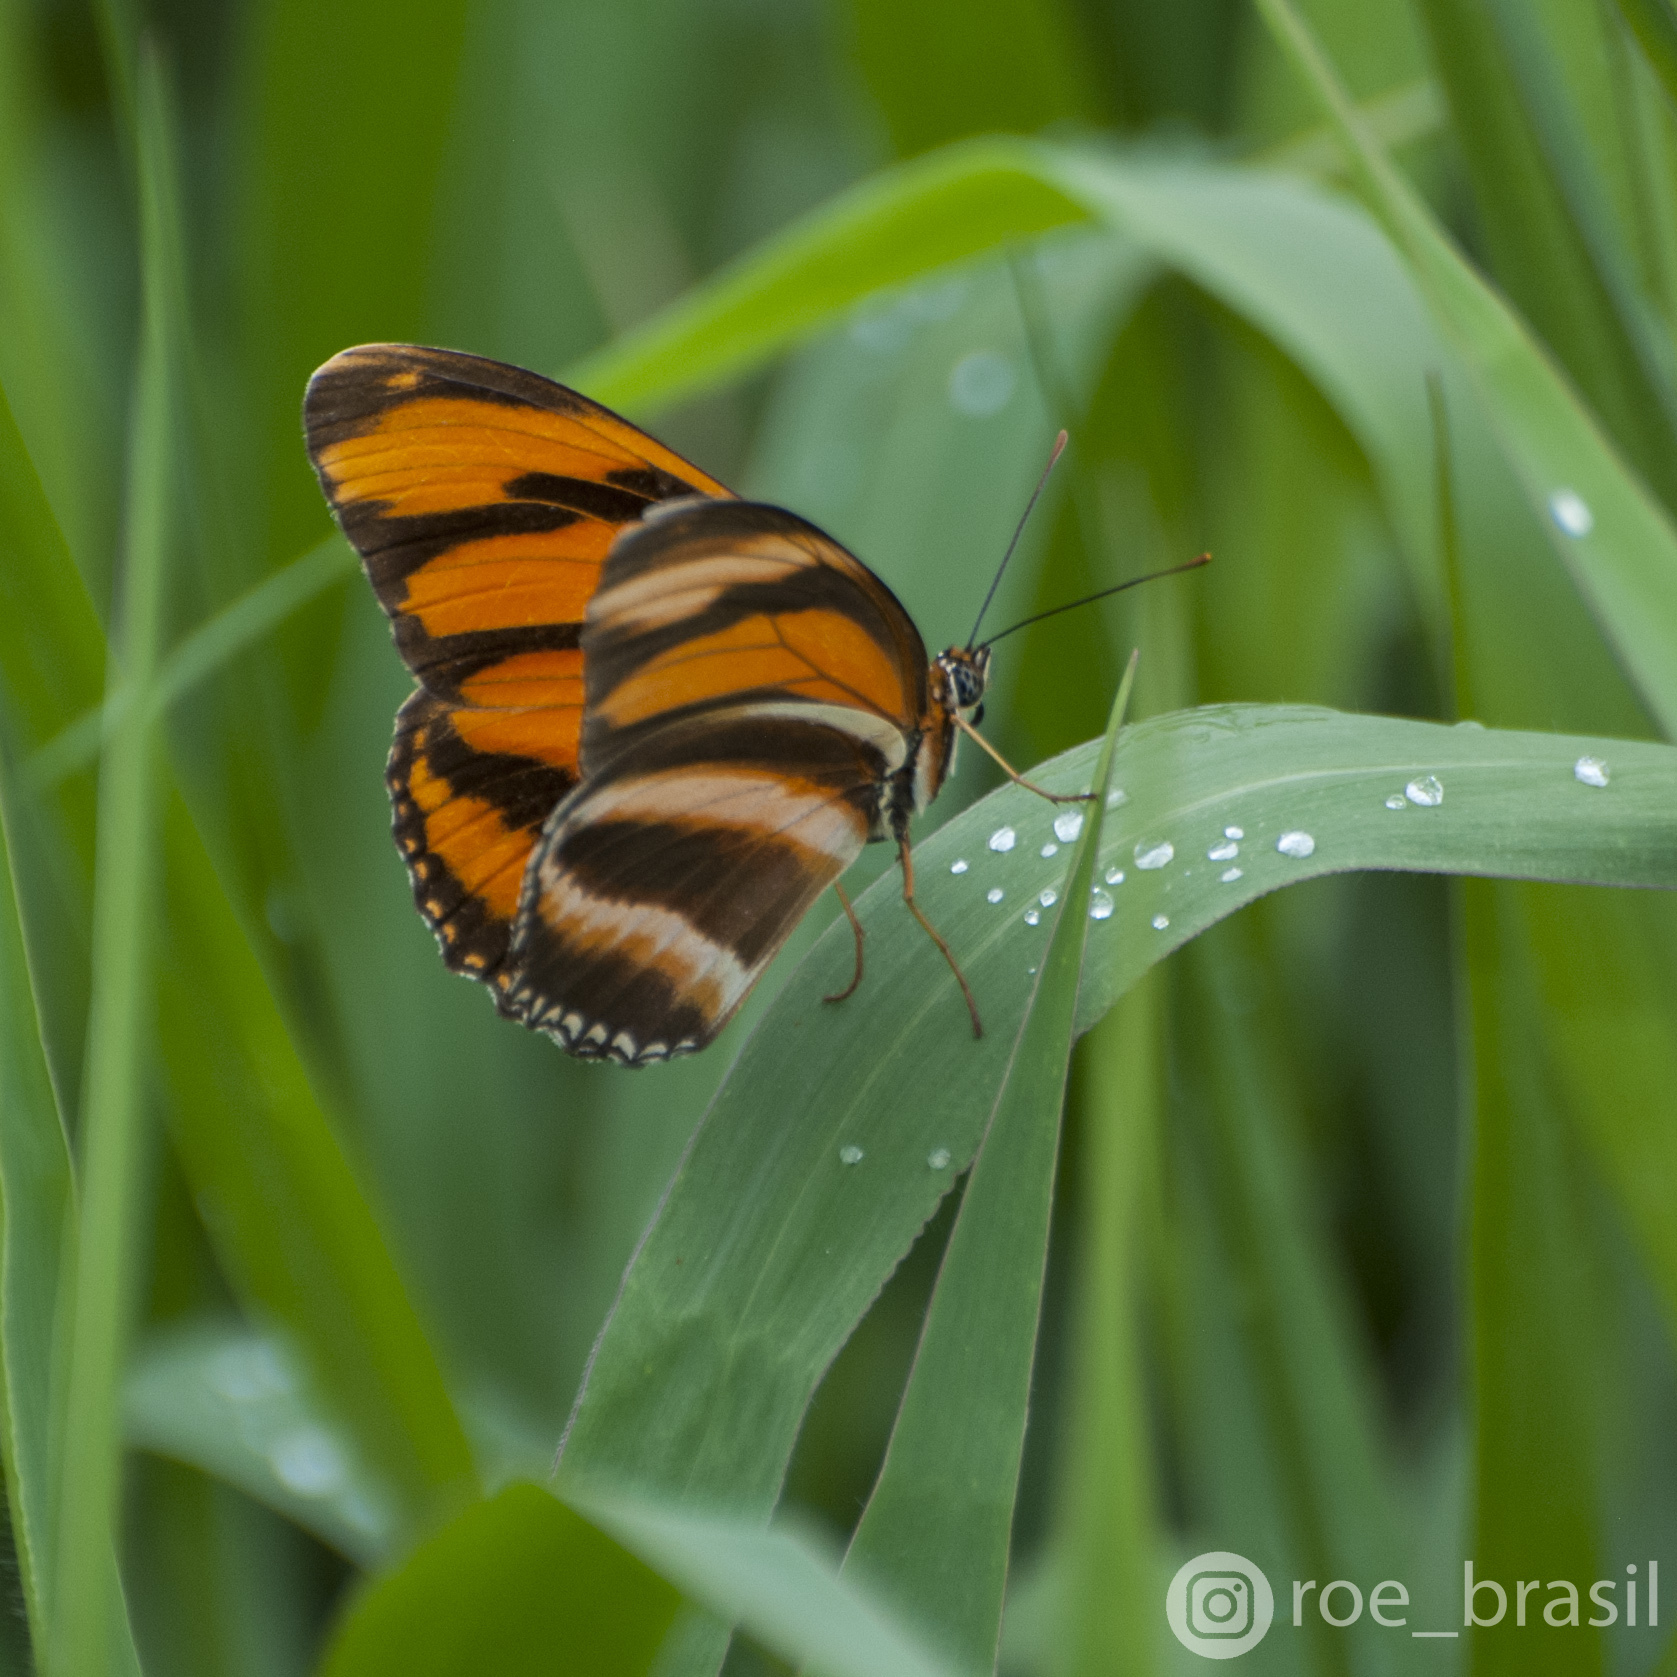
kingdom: Animalia
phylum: Arthropoda
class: Insecta
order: Lepidoptera
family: Nymphalidae
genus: Dryadula
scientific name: Dryadula phaetusa
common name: Banded orange heliconian
